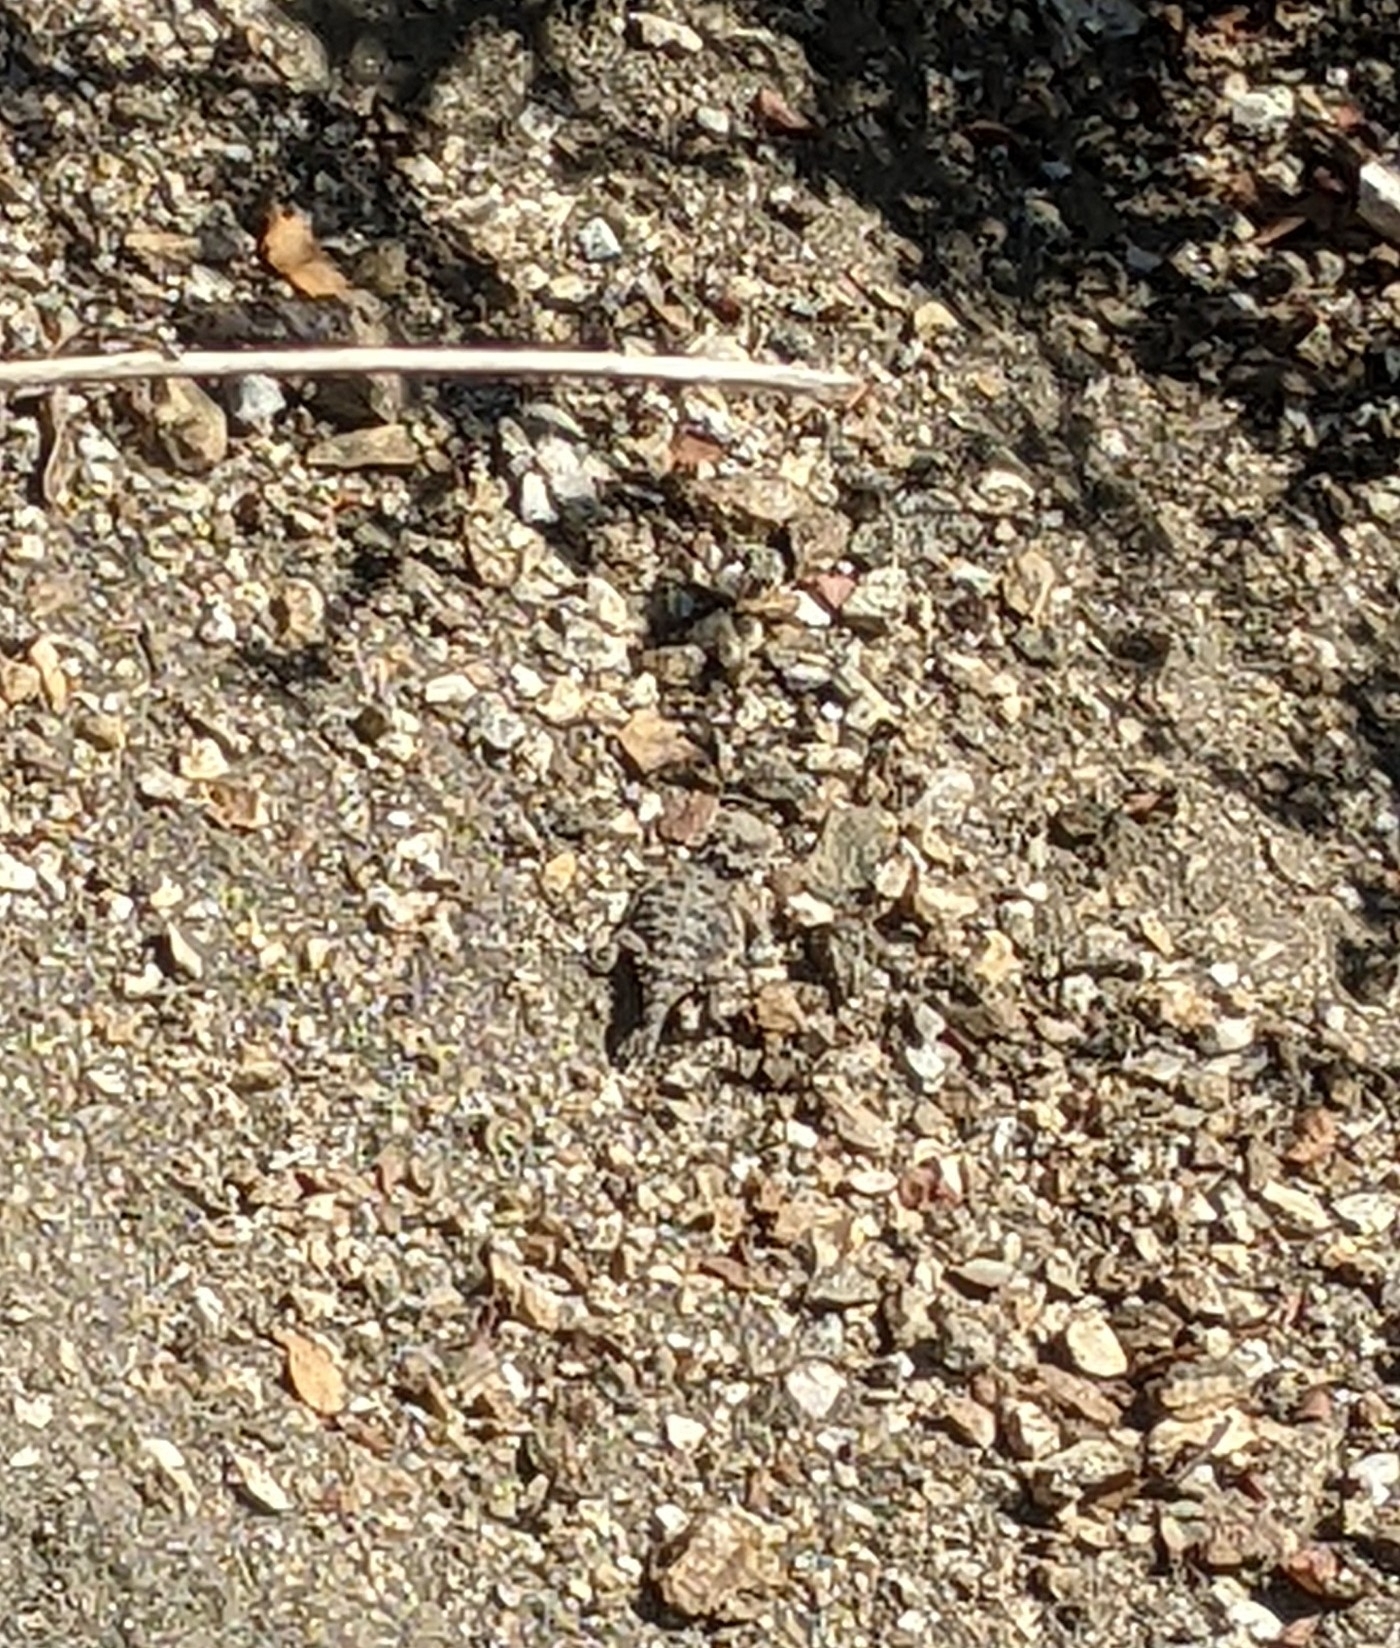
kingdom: Animalia
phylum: Chordata
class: Squamata
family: Phrynosomatidae
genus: Phrynosoma
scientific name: Phrynosoma blainvillii
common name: San diego horned lizard
